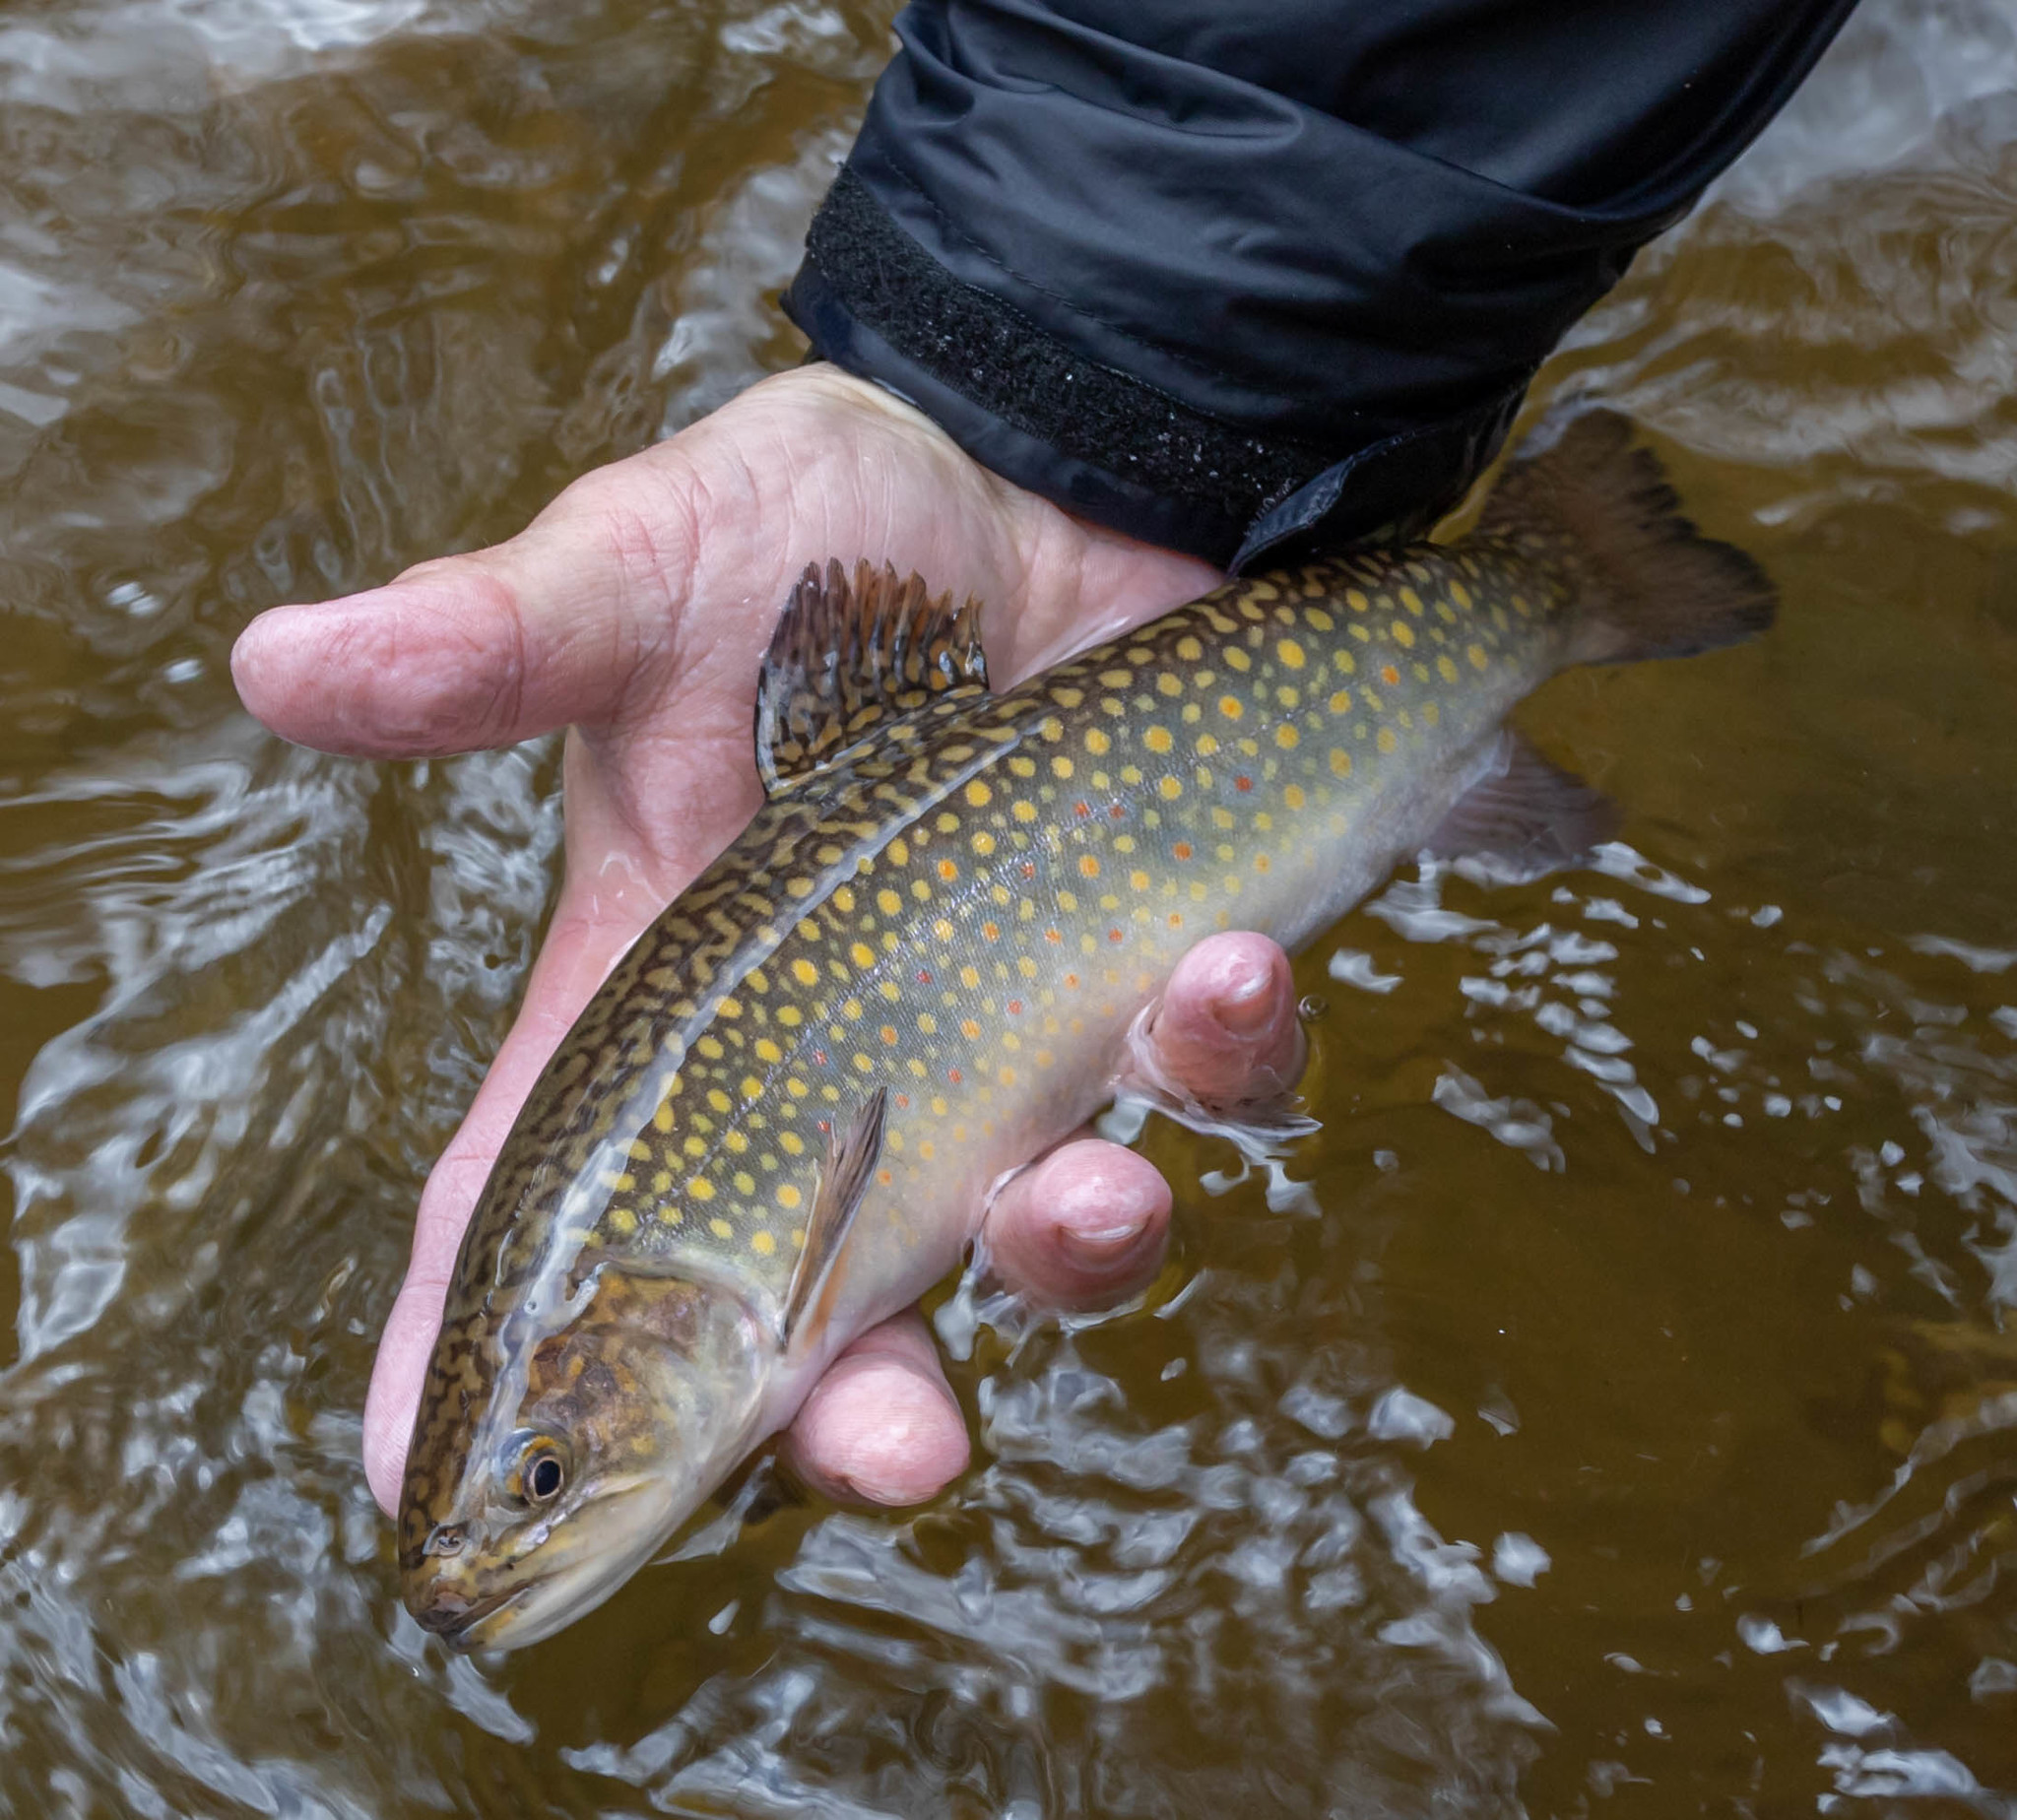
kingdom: Animalia
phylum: Chordata
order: Salmoniformes
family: Salmonidae
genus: Salvelinus
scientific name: Salvelinus fontinalis
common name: Brook trout
